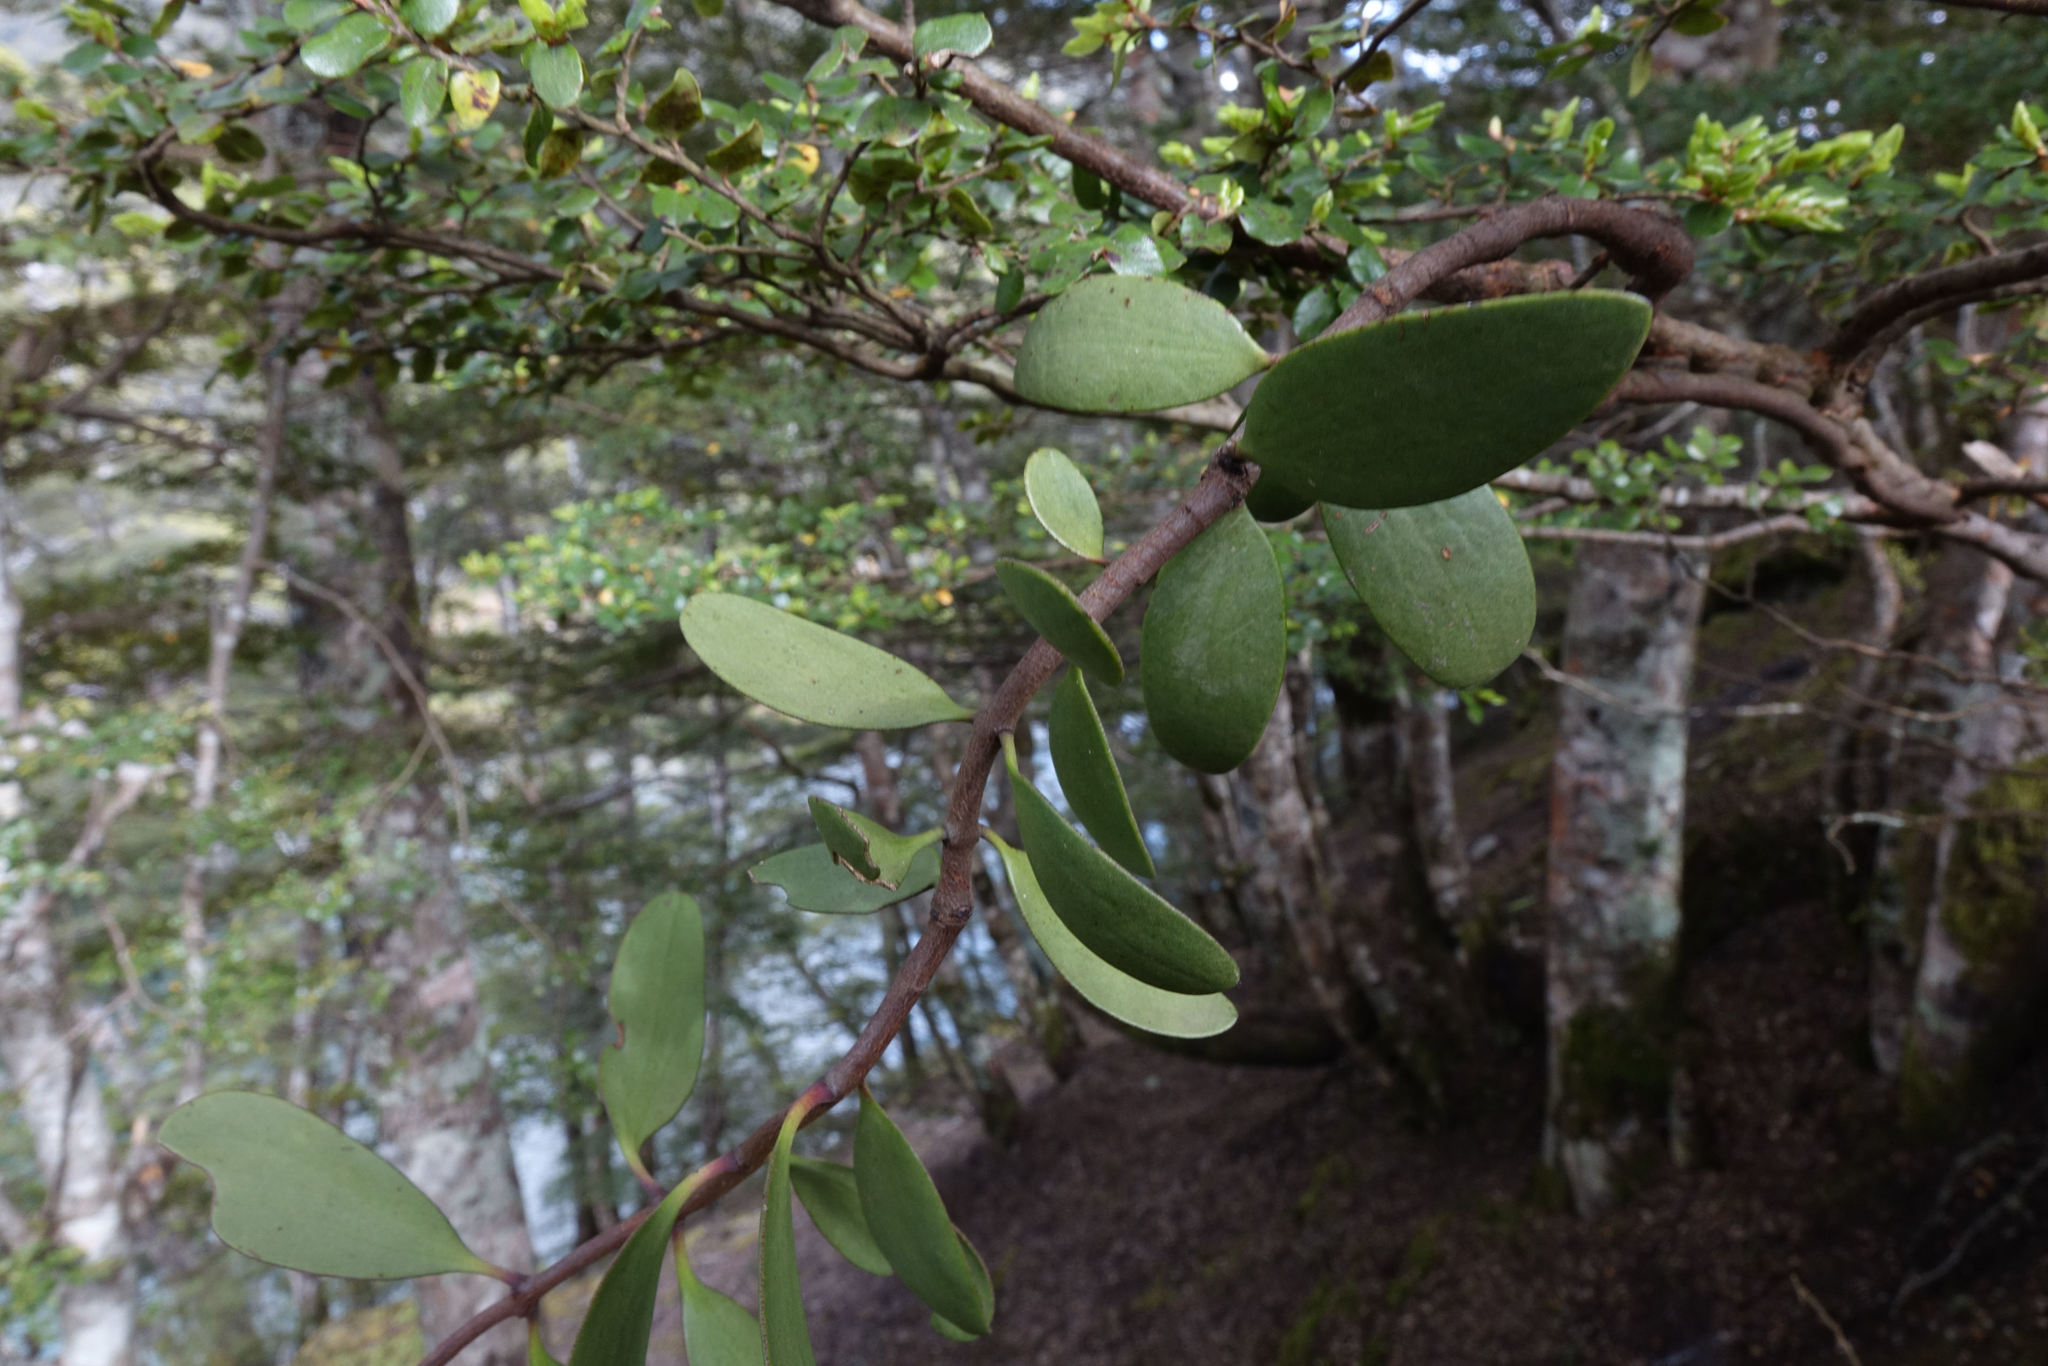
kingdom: Plantae
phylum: Tracheophyta
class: Magnoliopsida
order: Santalales
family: Loranthaceae
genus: Alepis
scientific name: Alepis flavida
